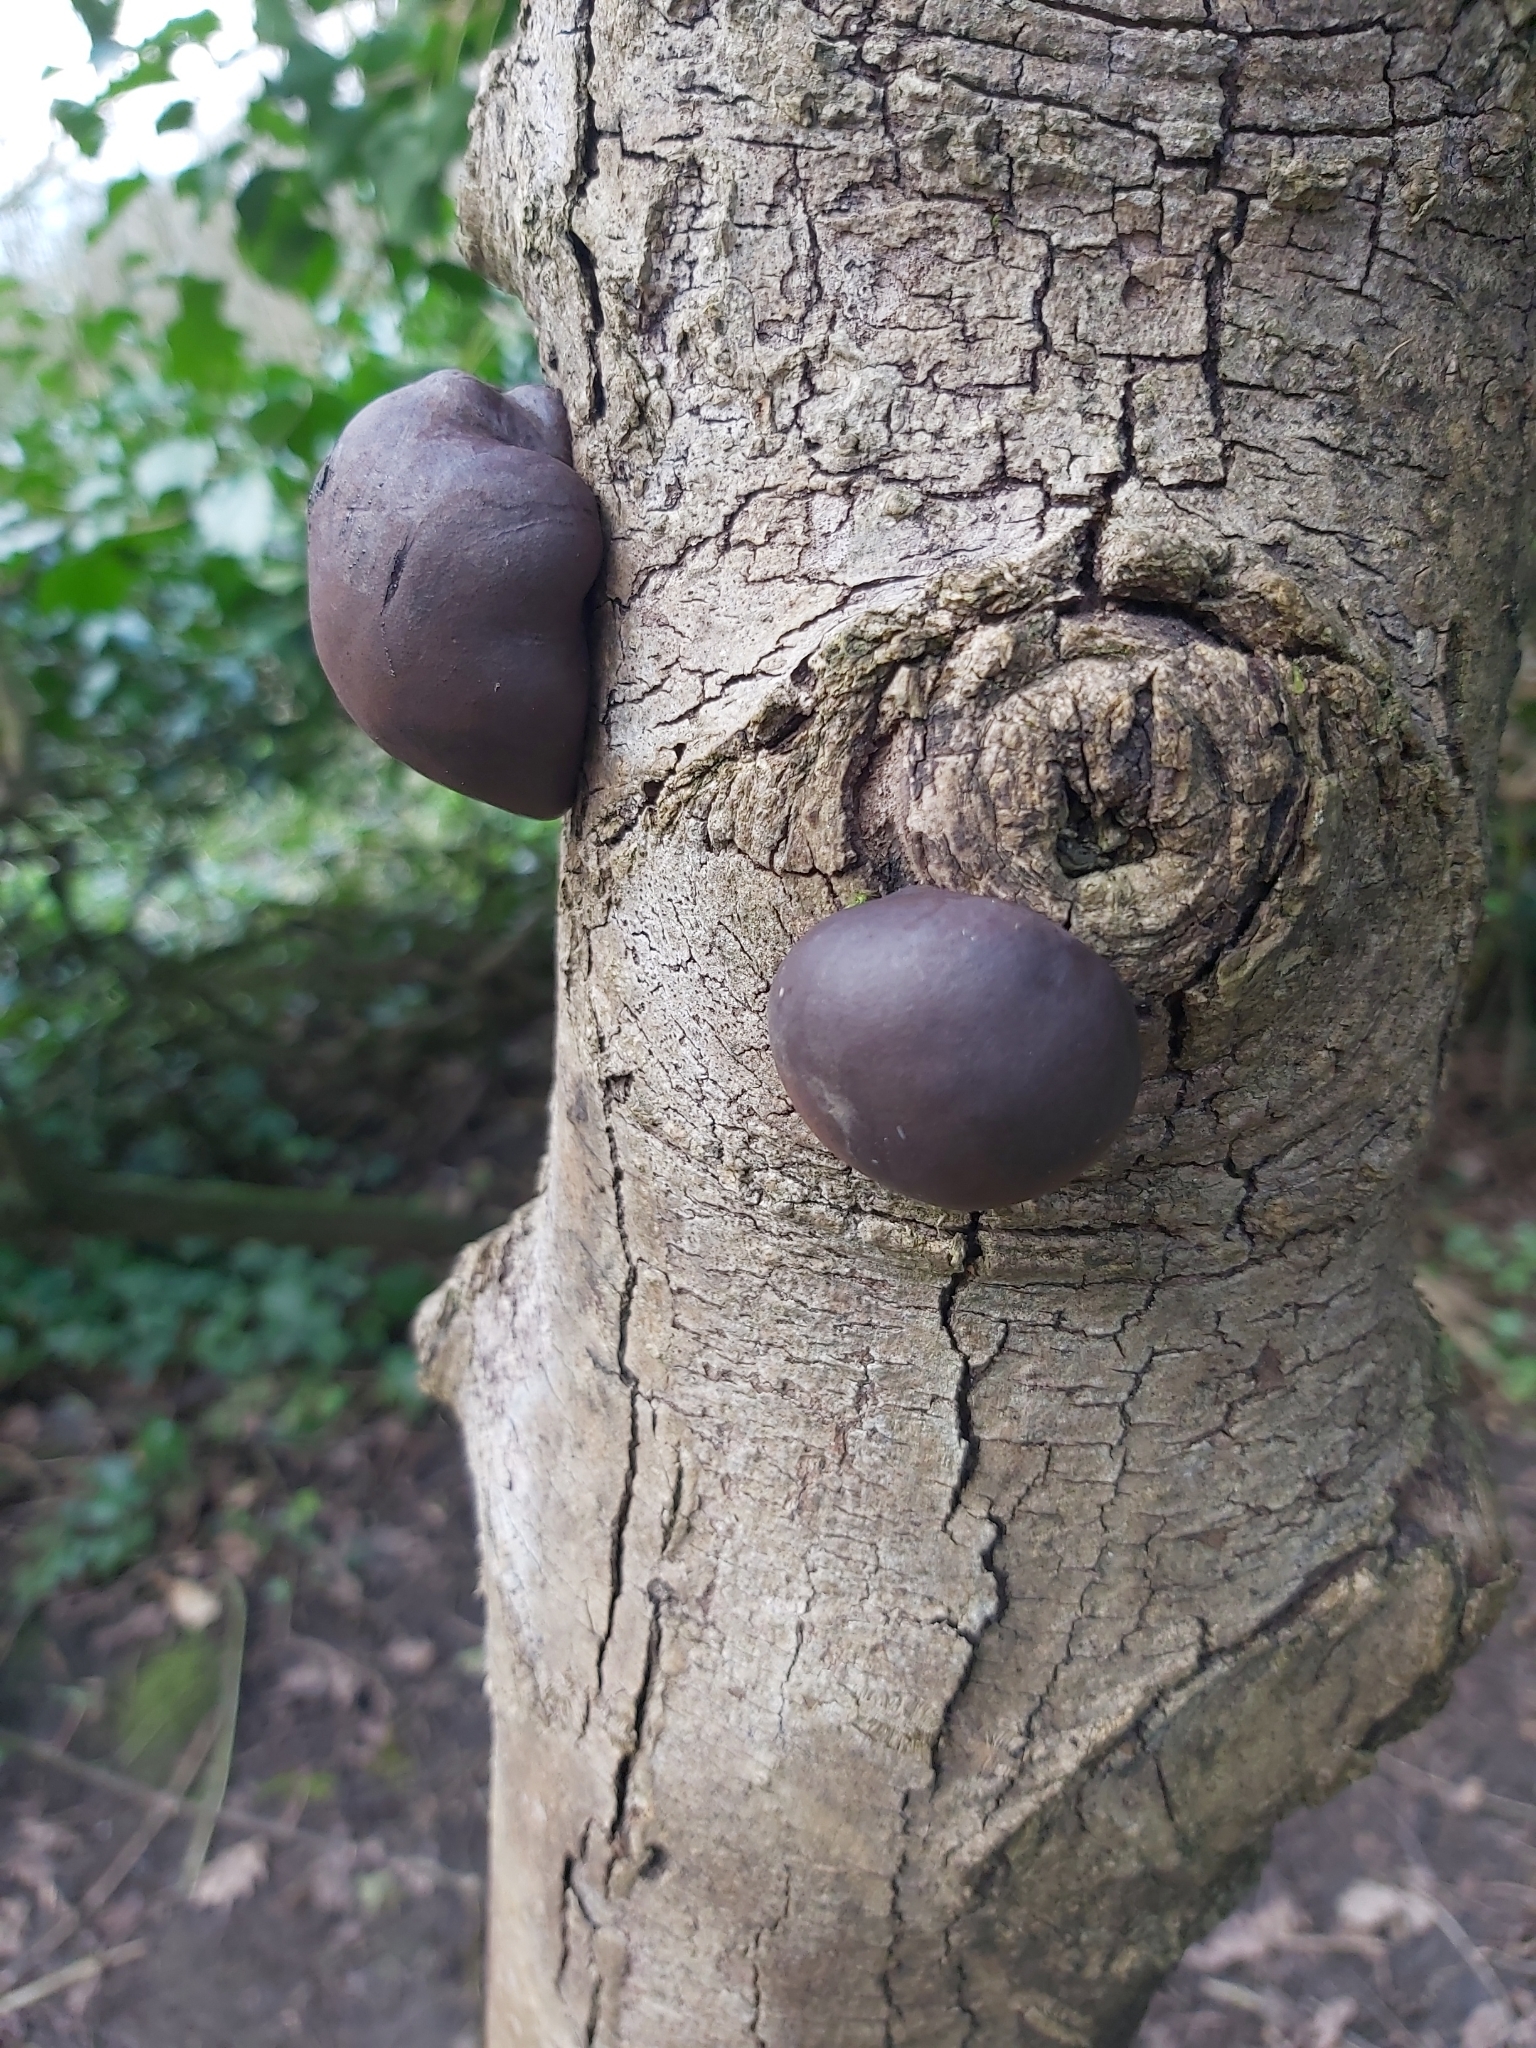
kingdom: Fungi
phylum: Ascomycota
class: Sordariomycetes
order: Xylariales
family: Hypoxylaceae
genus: Daldinia
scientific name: Daldinia concentrica
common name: Cramp balls
